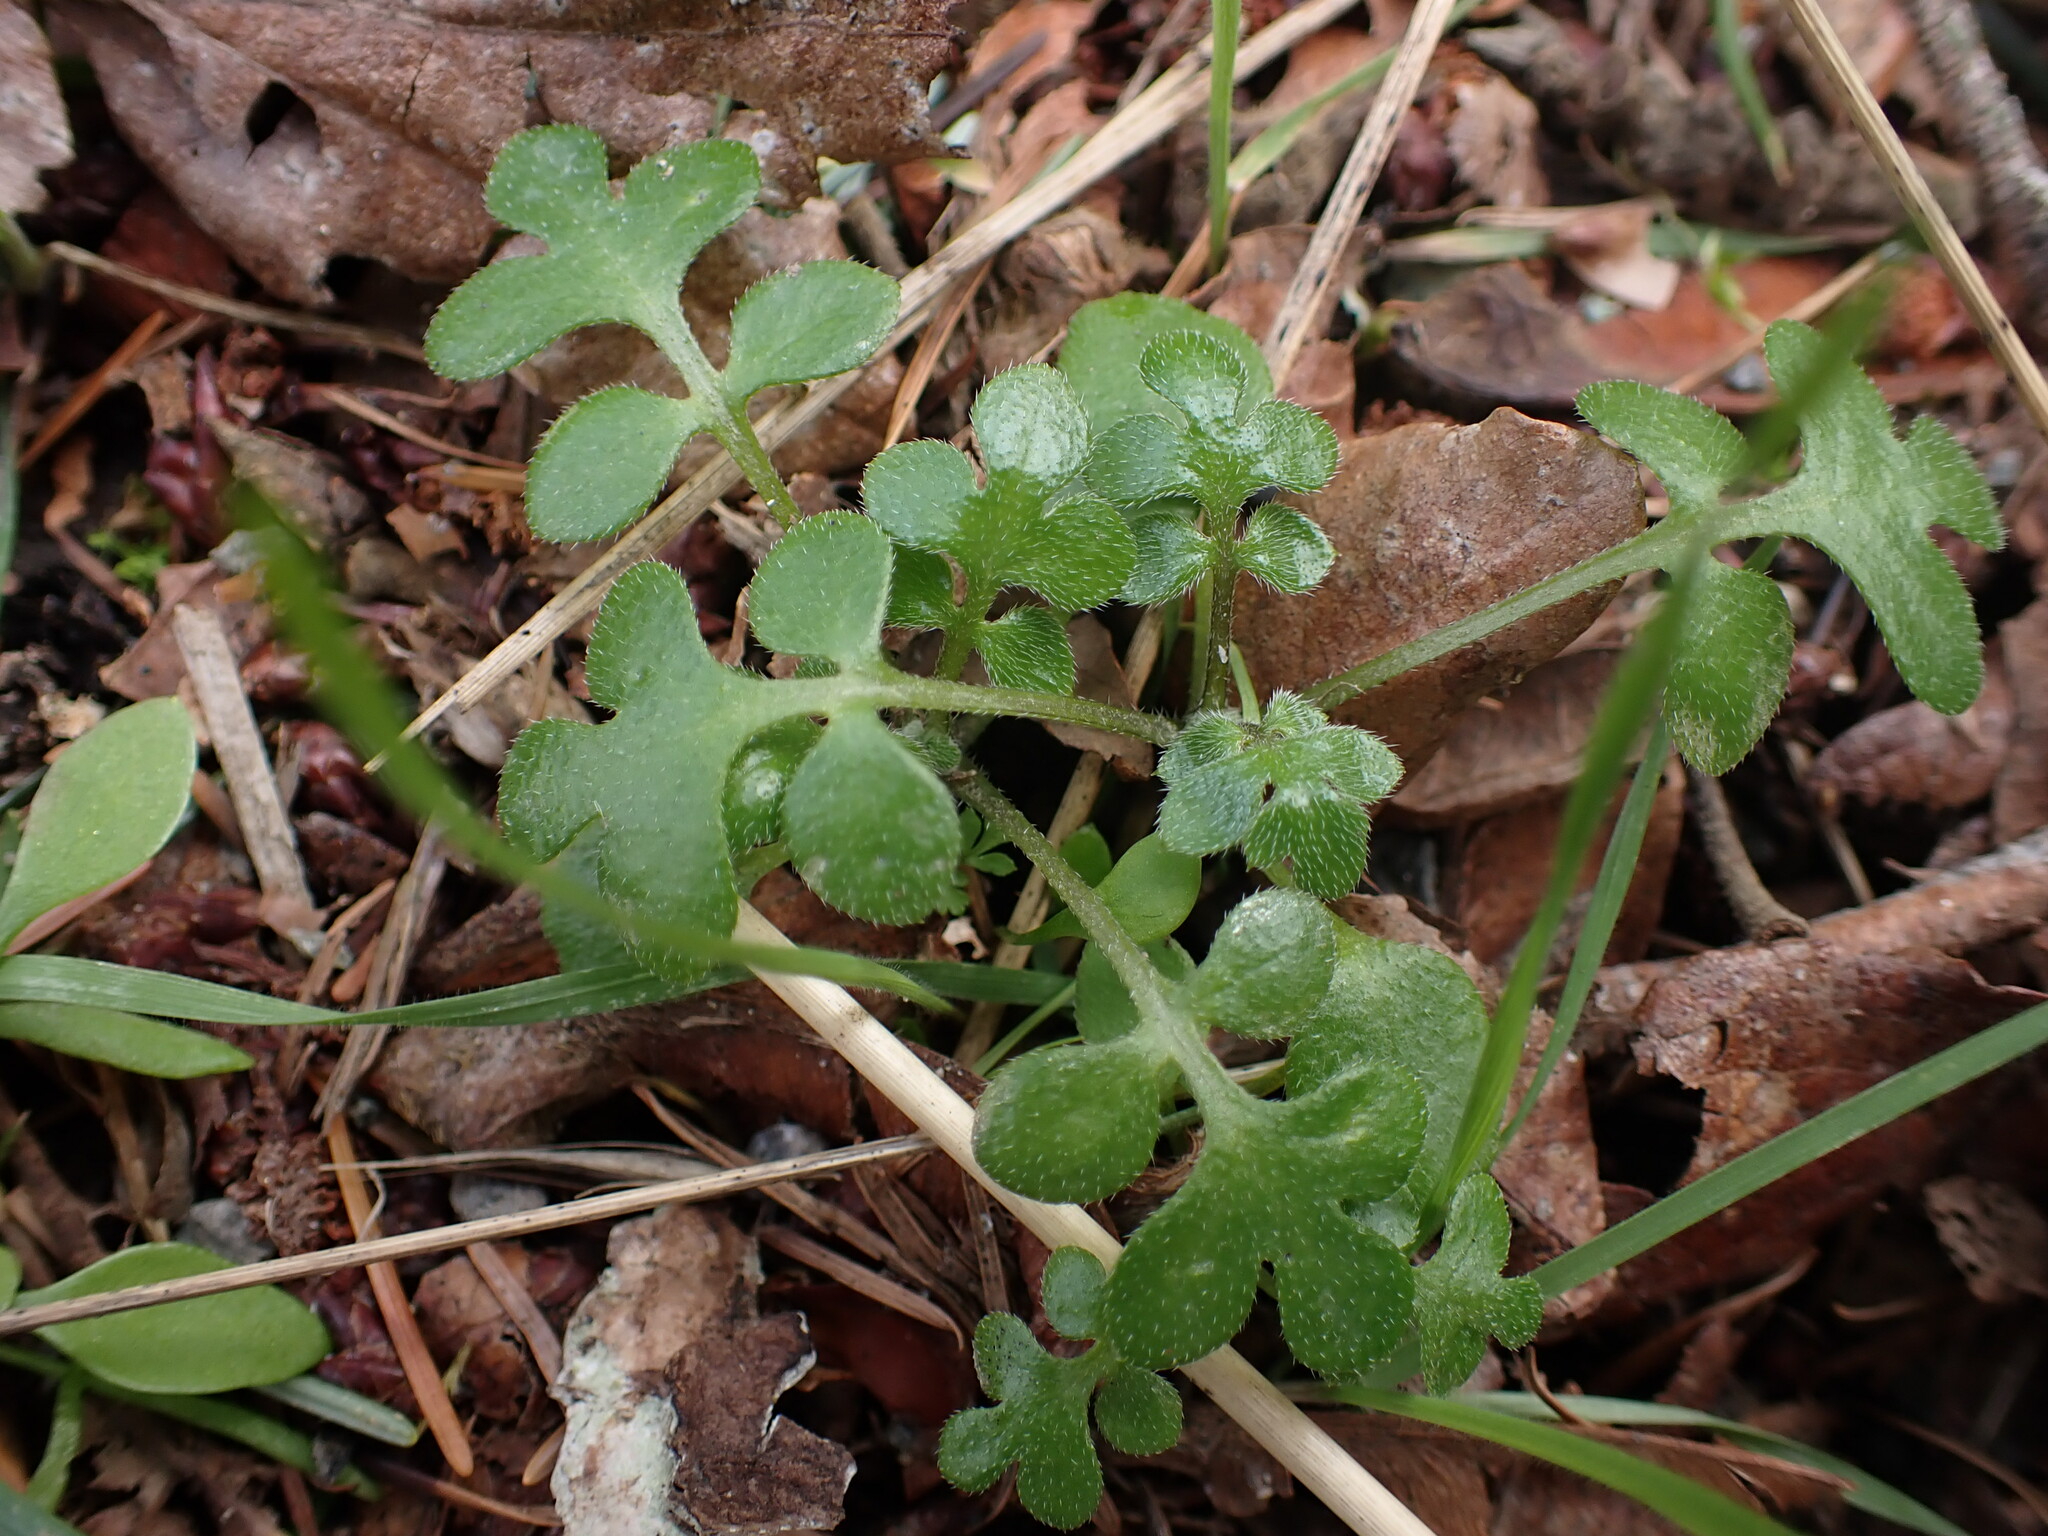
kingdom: Plantae
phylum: Tracheophyta
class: Magnoliopsida
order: Boraginales
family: Hydrophyllaceae
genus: Nemophila
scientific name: Nemophila parviflora
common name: Small-flowered baby-blue-eyes
